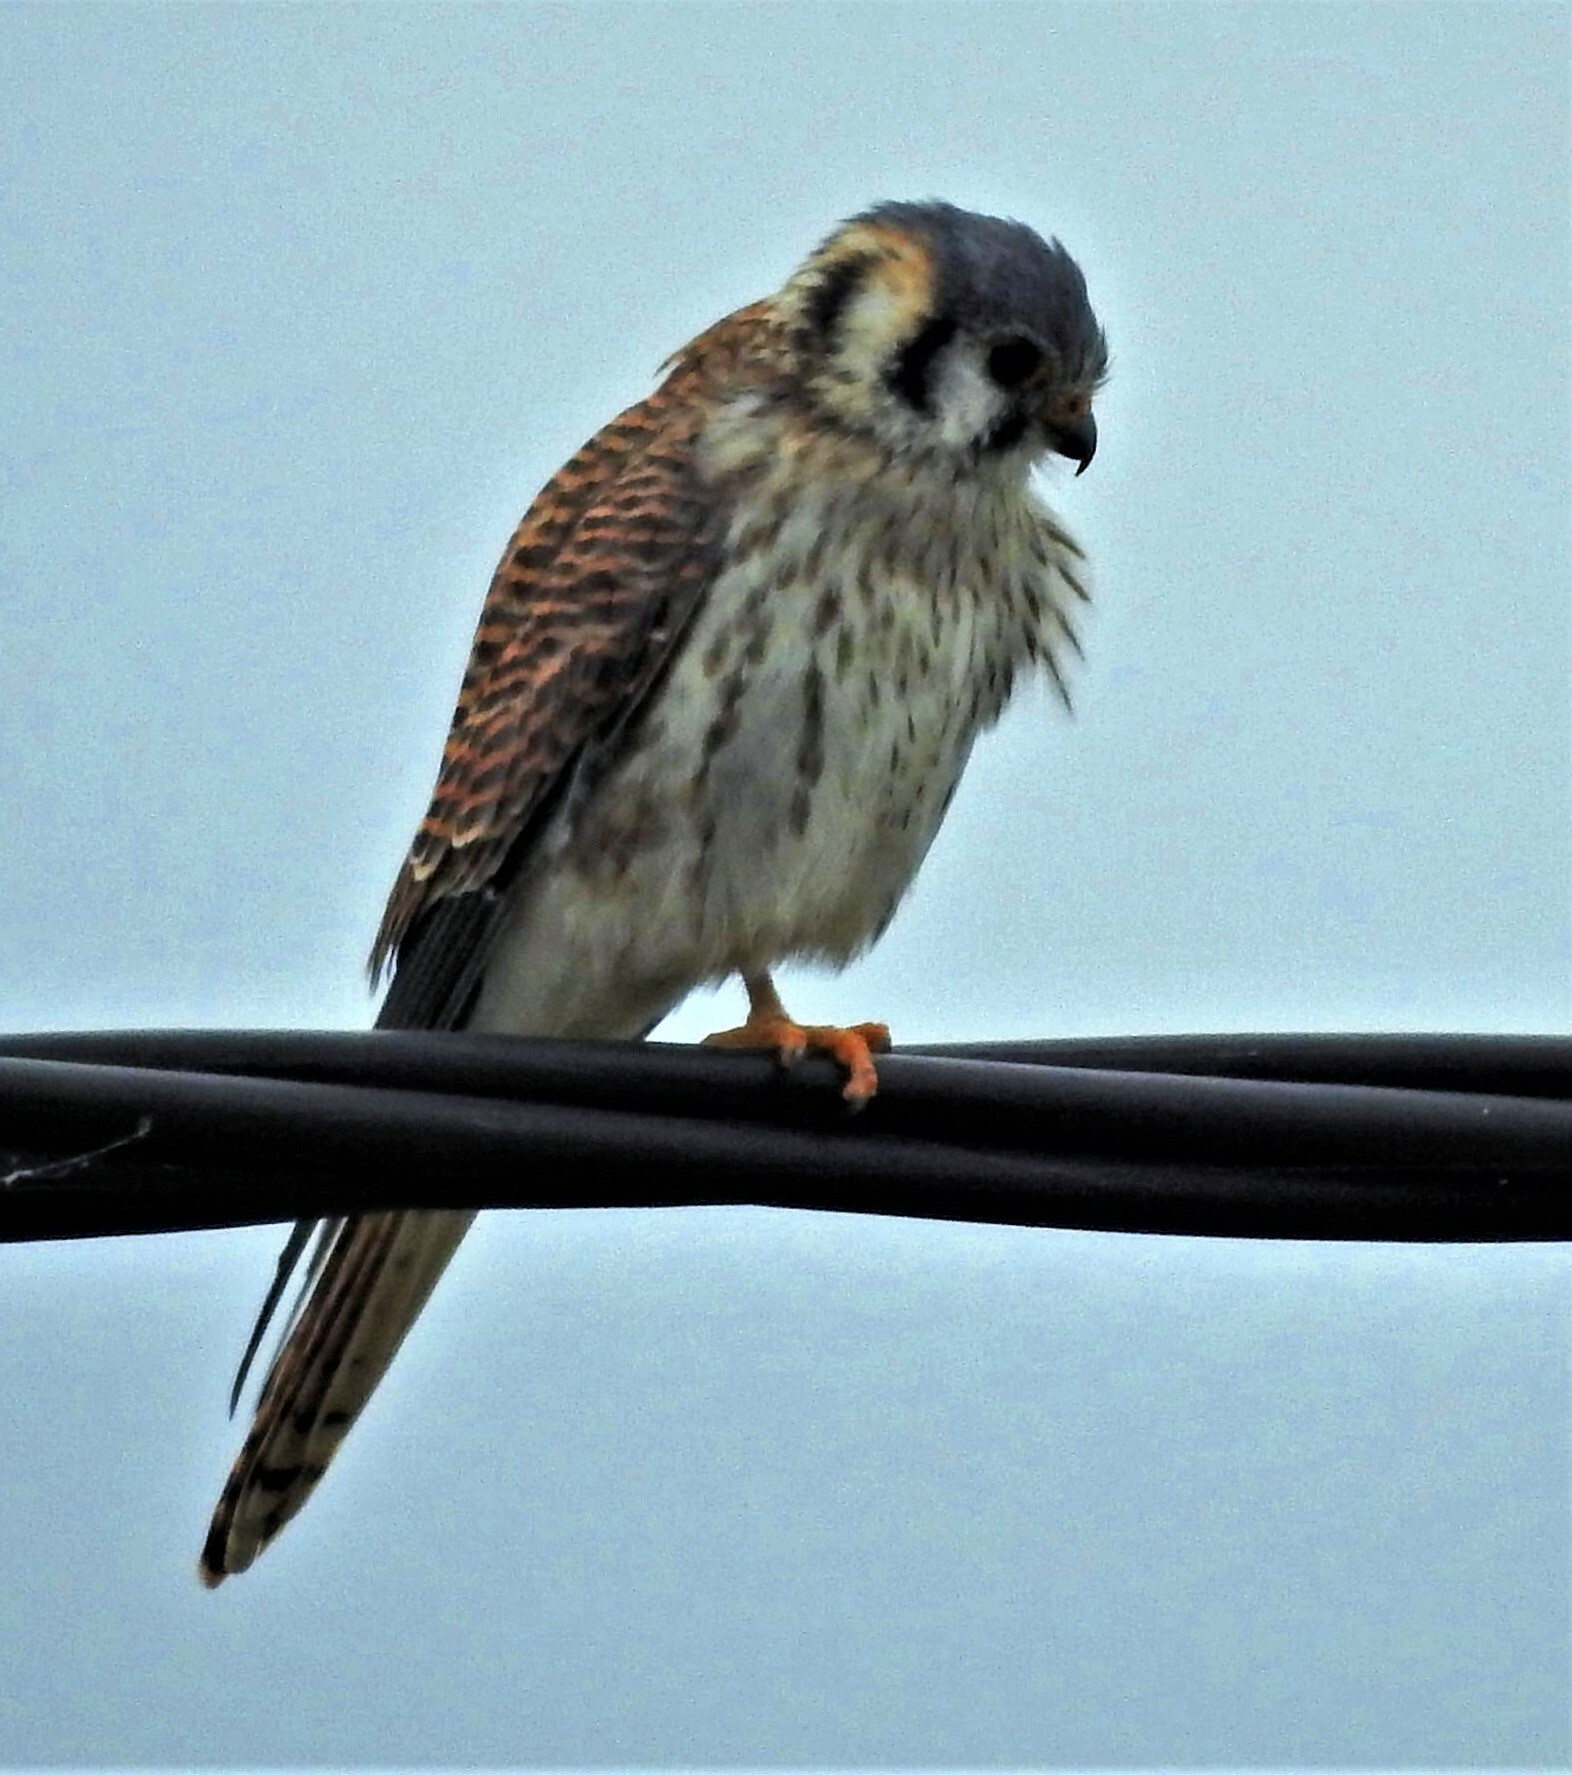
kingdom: Animalia
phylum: Chordata
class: Aves
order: Falconiformes
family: Falconidae
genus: Falco
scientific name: Falco sparverius
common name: American kestrel
